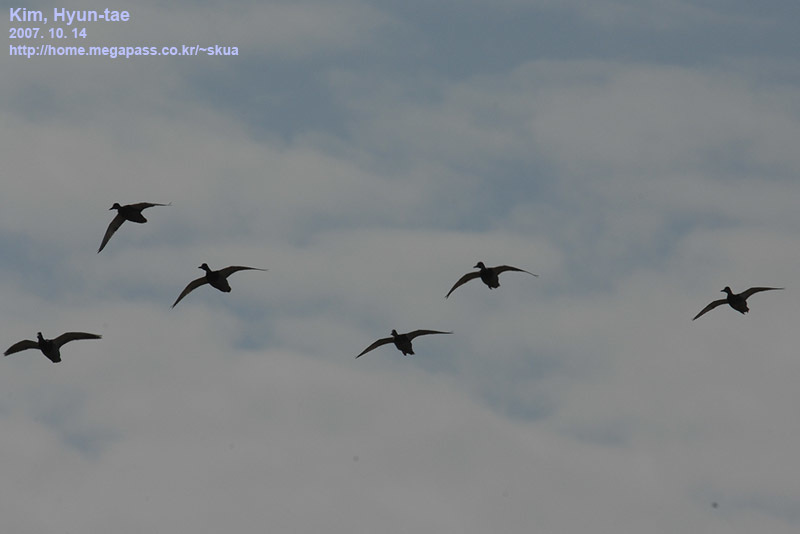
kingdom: Animalia
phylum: Chordata
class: Aves
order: Anseriformes
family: Anatidae
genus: Anas
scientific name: Anas platyrhynchos
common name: Mallard
